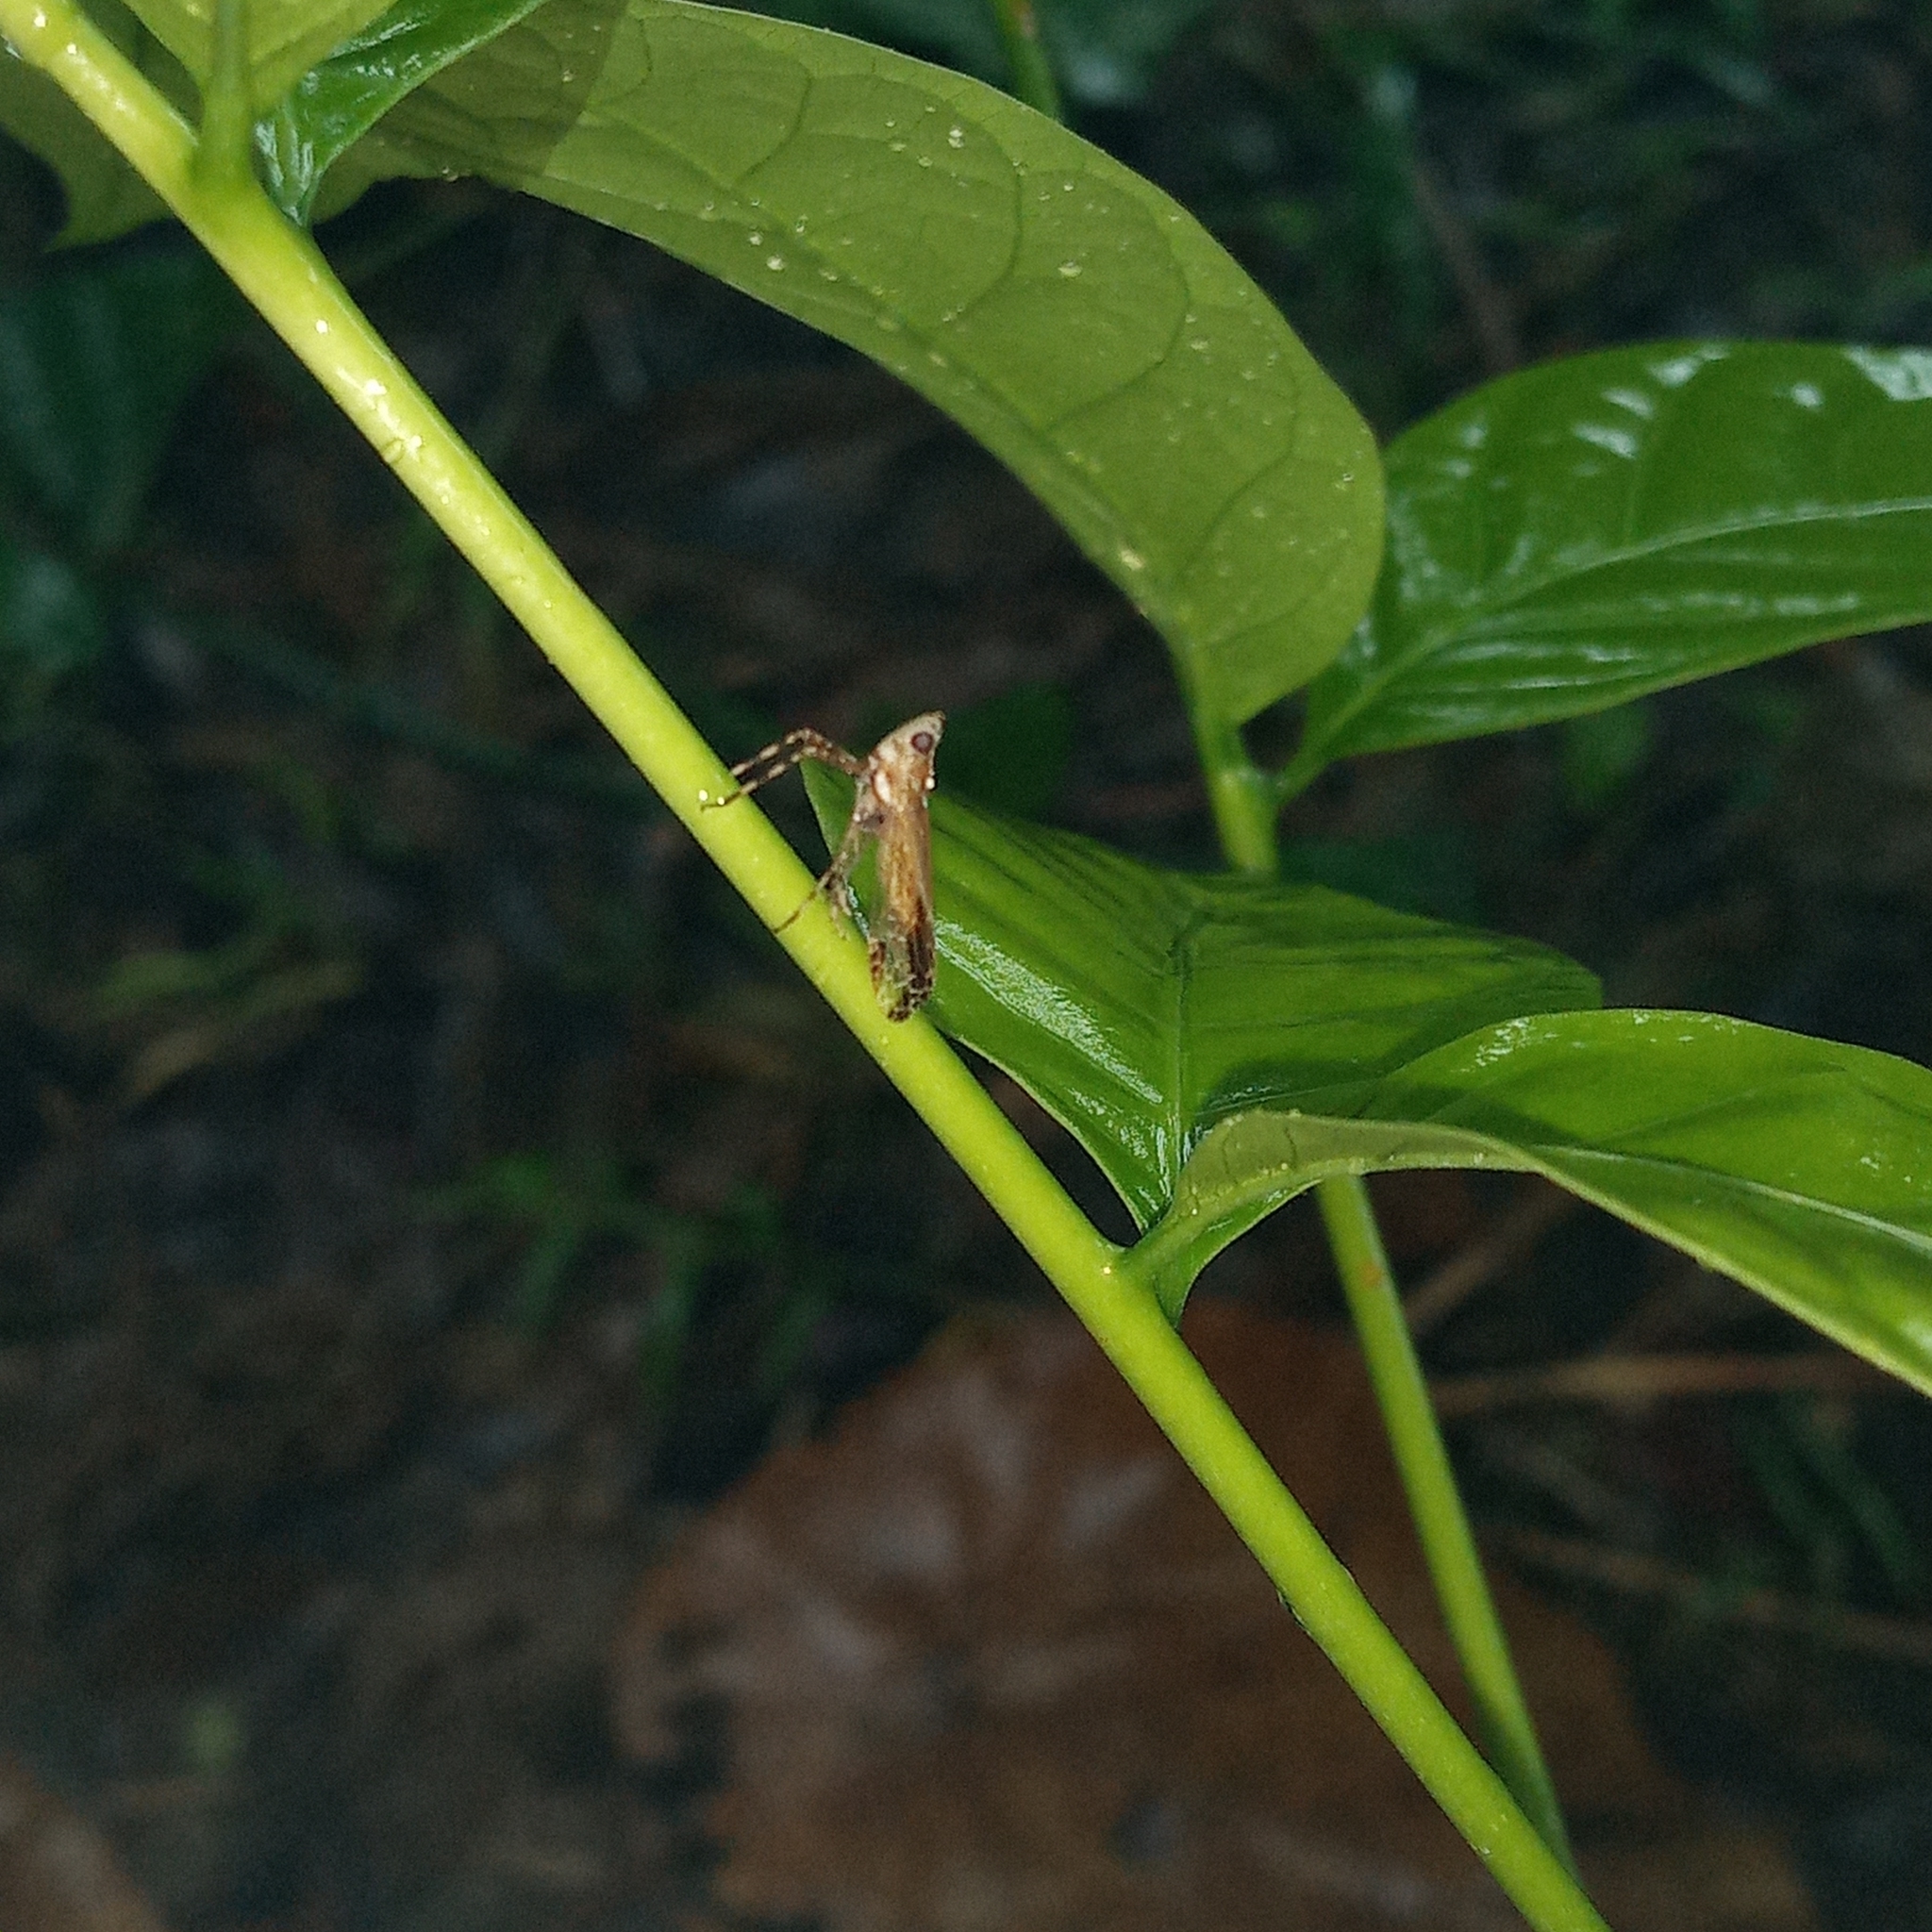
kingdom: Animalia
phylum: Arthropoda
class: Insecta
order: Hemiptera
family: Dictyopharidae
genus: Orthopagus
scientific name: Orthopagus philippinus
